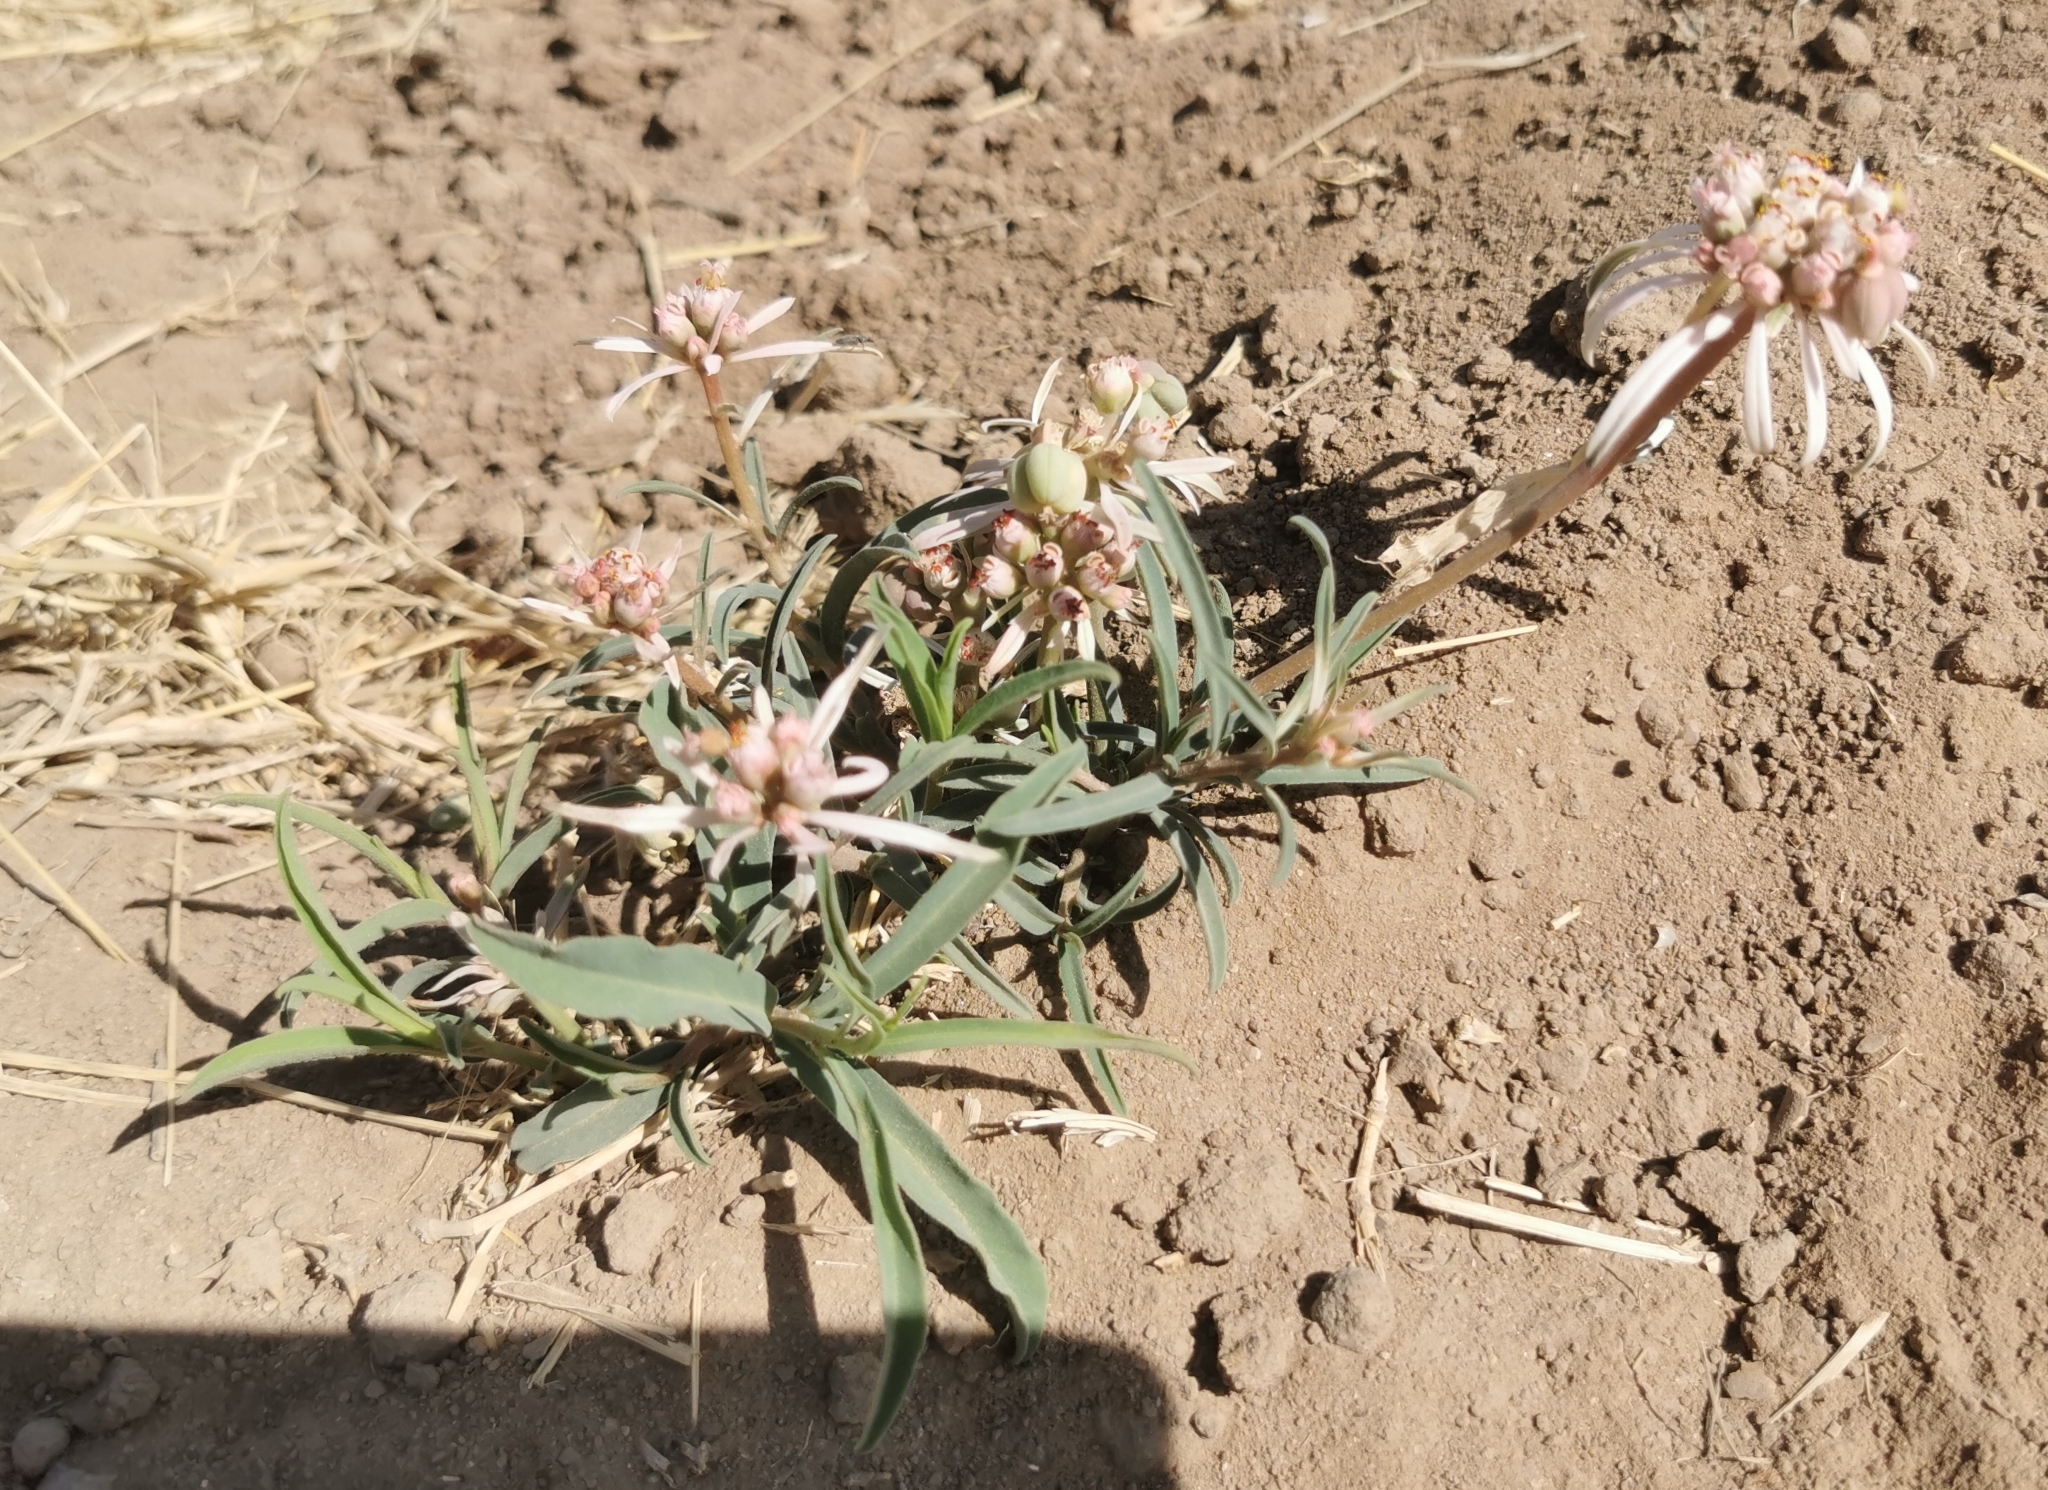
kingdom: Plantae
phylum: Tracheophyta
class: Magnoliopsida
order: Malpighiales
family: Euphorbiaceae
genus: Euphorbia
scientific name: Euphorbia radians
